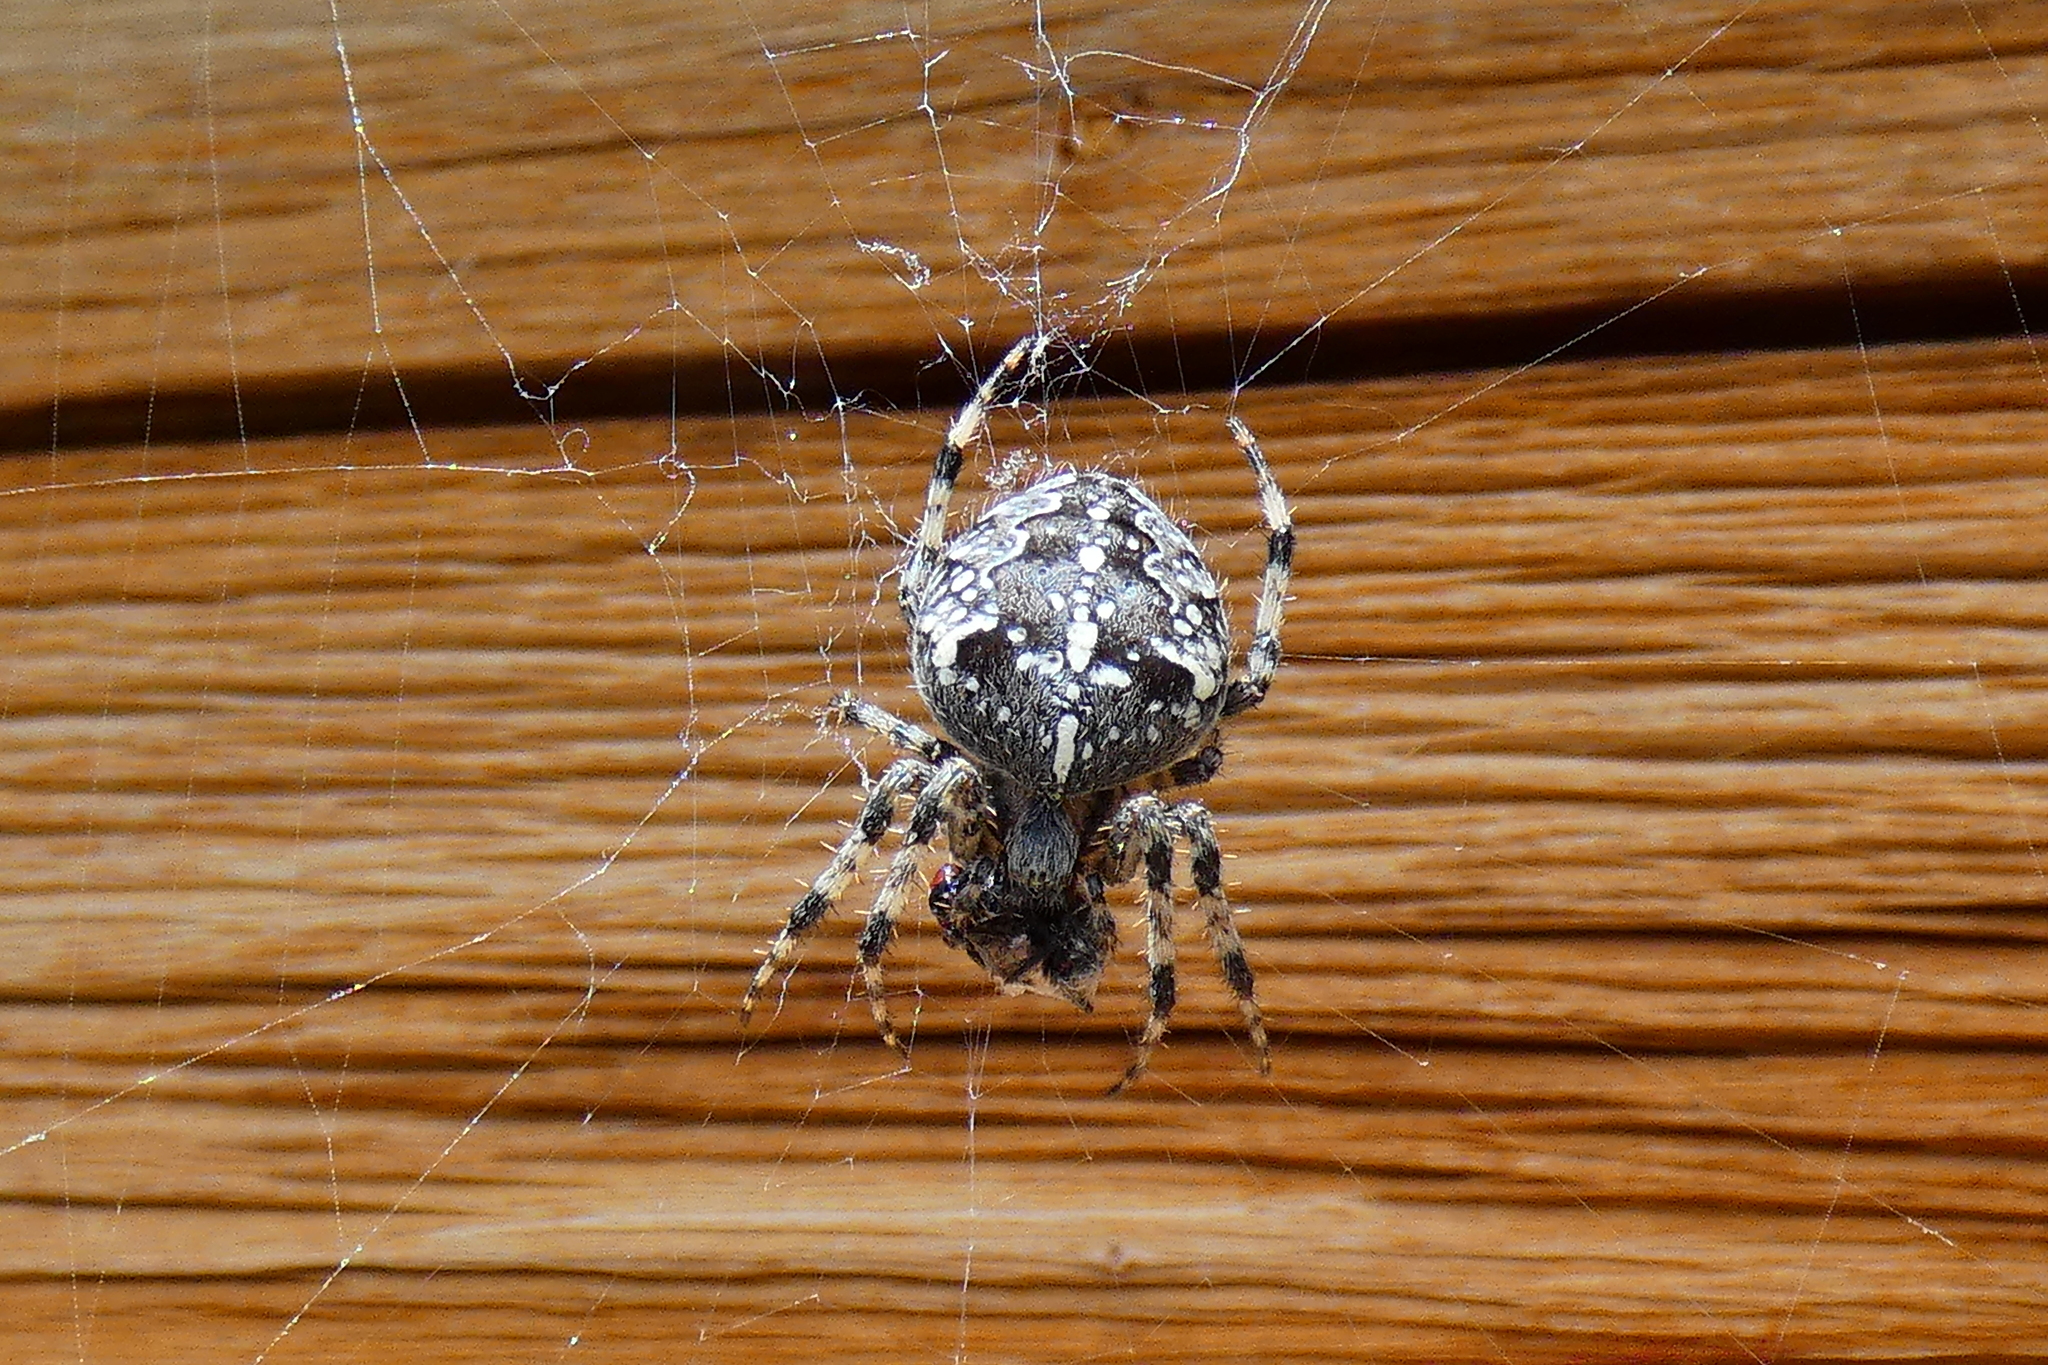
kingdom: Animalia
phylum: Arthropoda
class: Arachnida
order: Araneae
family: Araneidae
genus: Araneus
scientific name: Araneus diadematus
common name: Cross orbweaver
